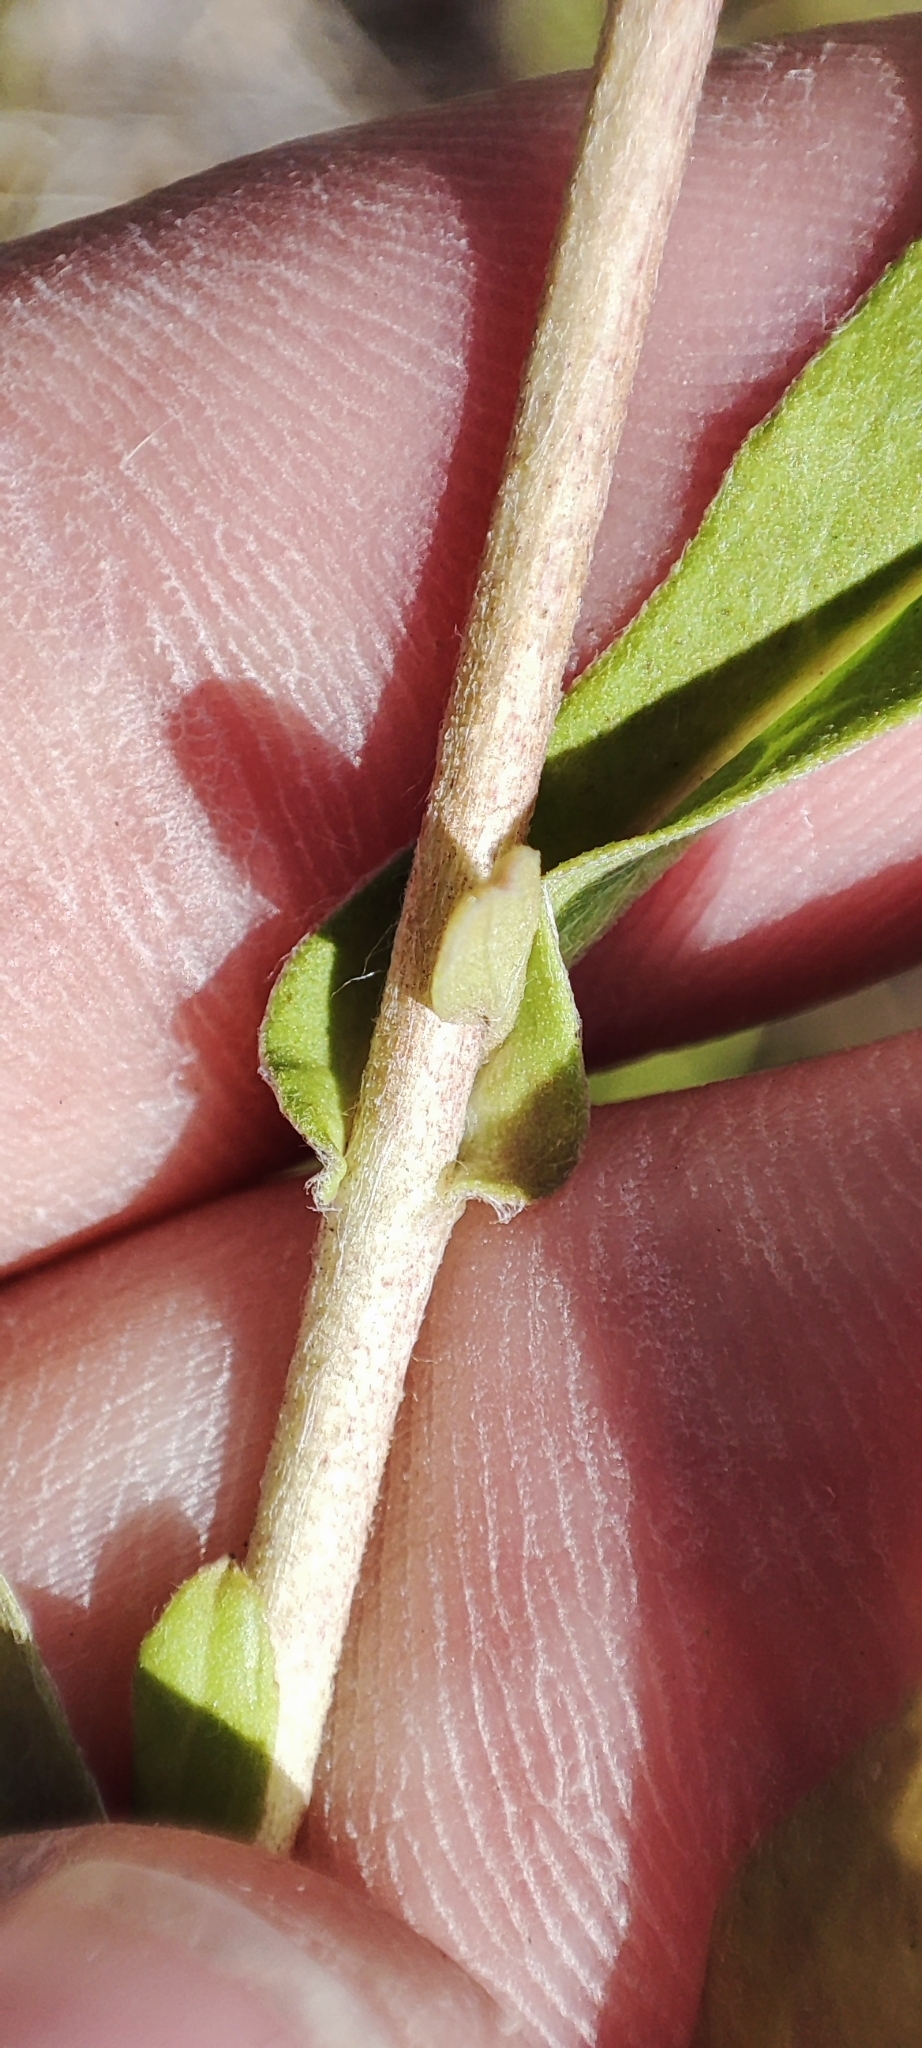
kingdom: Plantae
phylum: Tracheophyta
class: Magnoliopsida
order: Asterales
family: Asteraceae
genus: Pentanema
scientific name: Pentanema britannicum
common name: British elecampane
